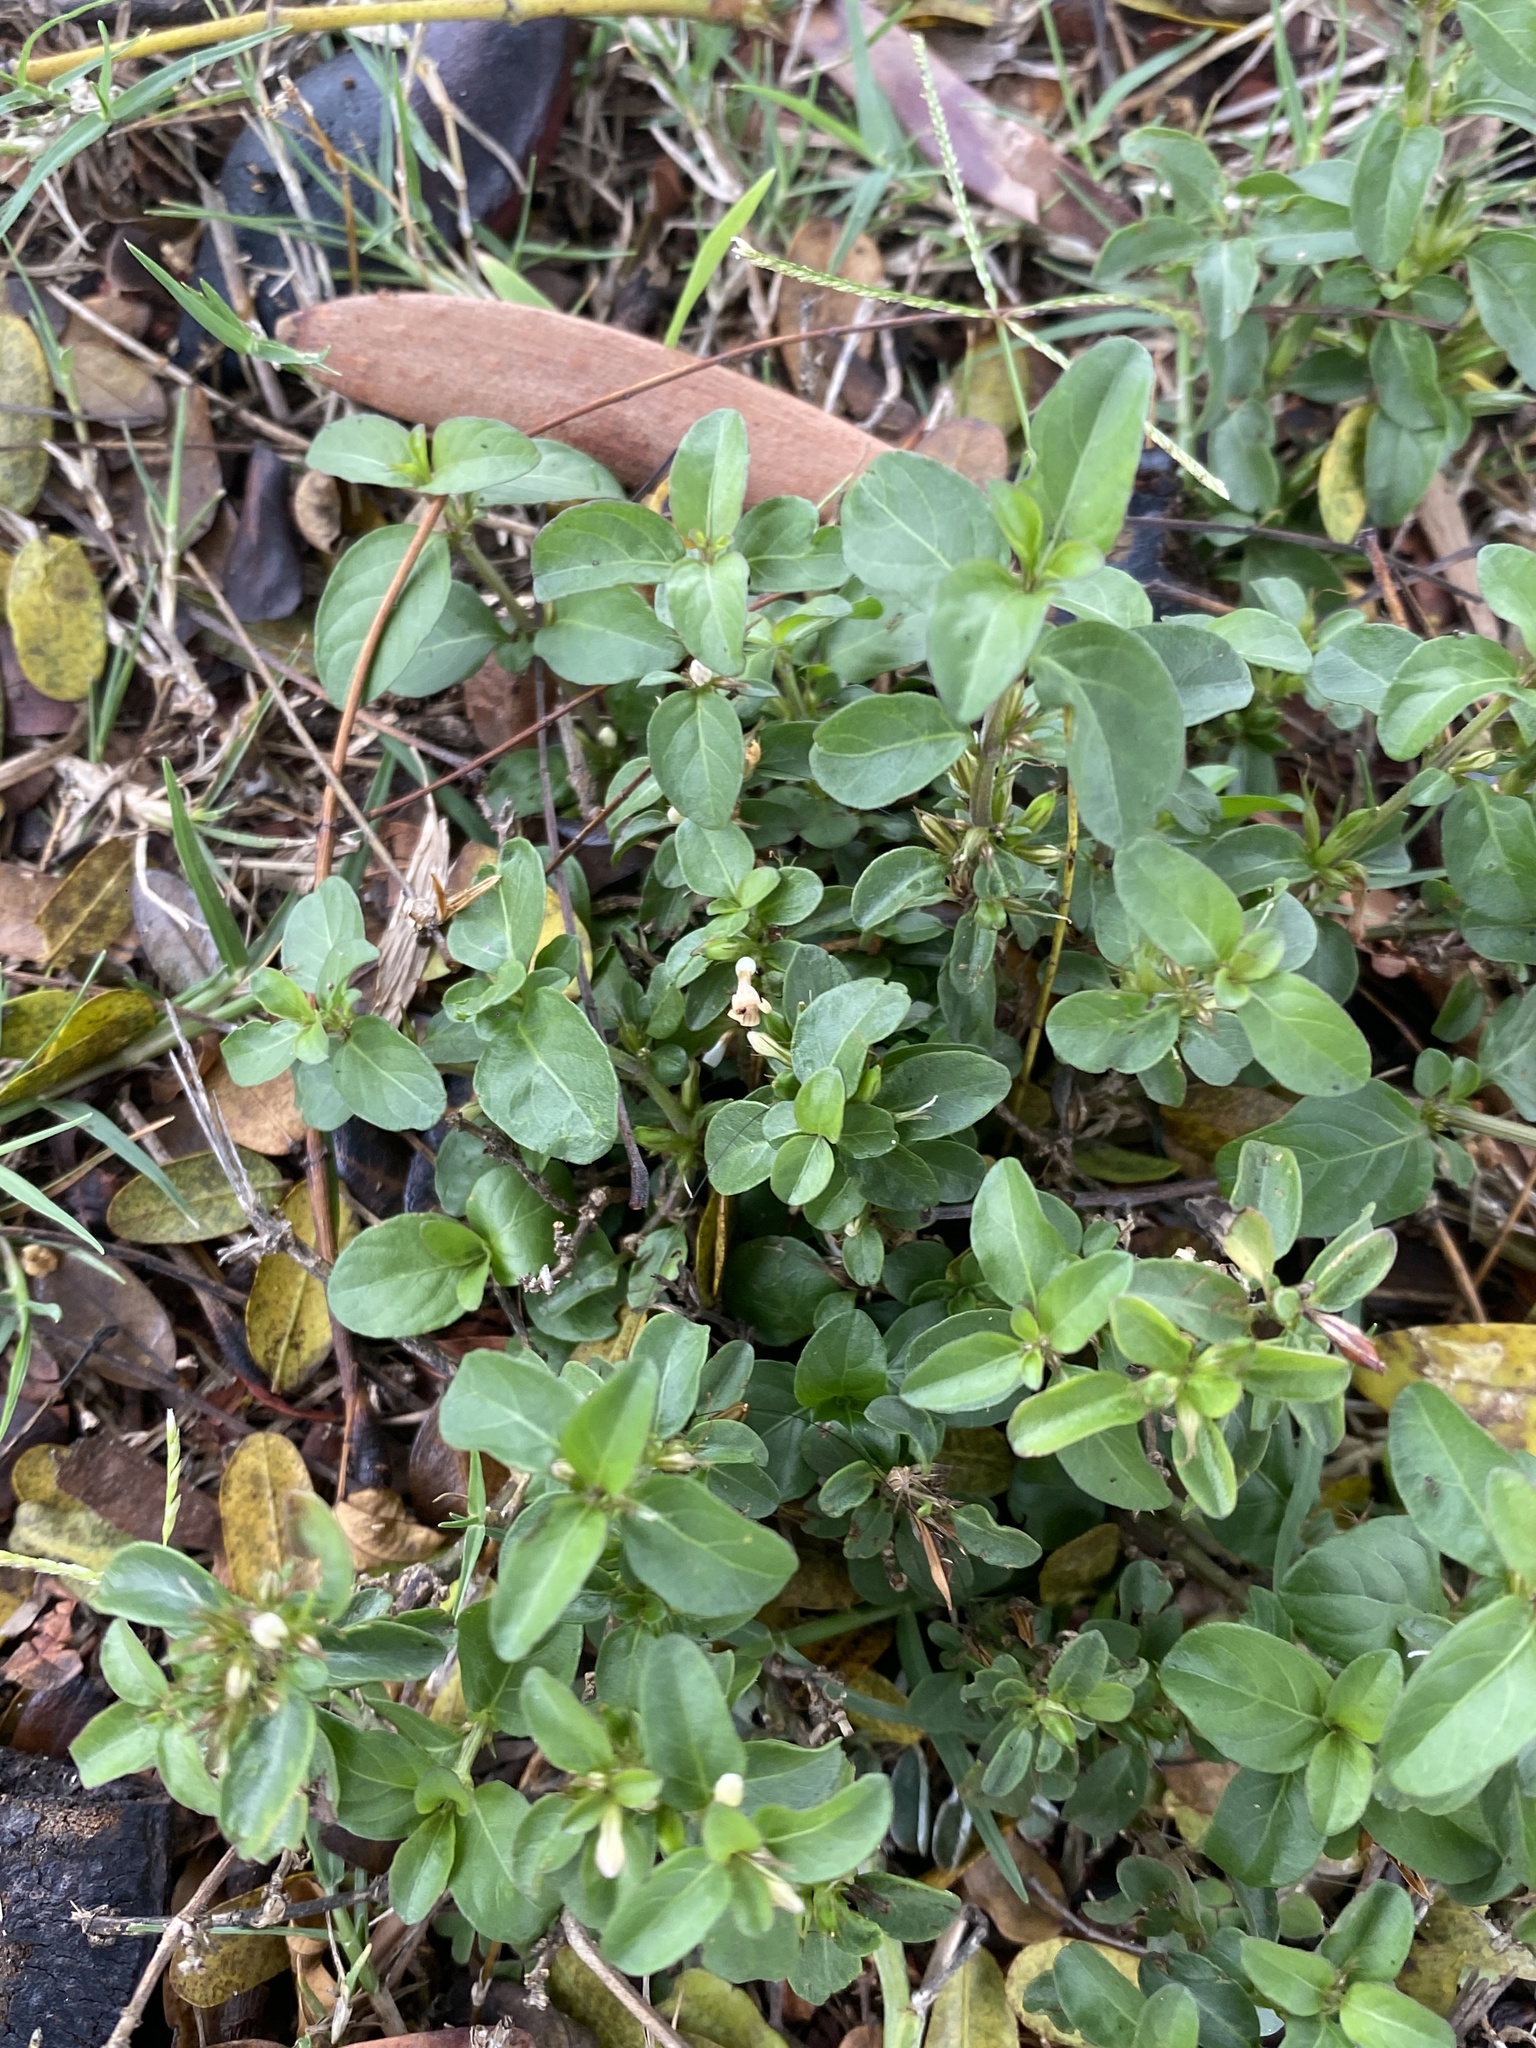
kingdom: Plantae
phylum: Tracheophyta
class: Magnoliopsida
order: Lamiales
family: Acanthaceae
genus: Hygrophila
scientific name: Hygrophila erecta
